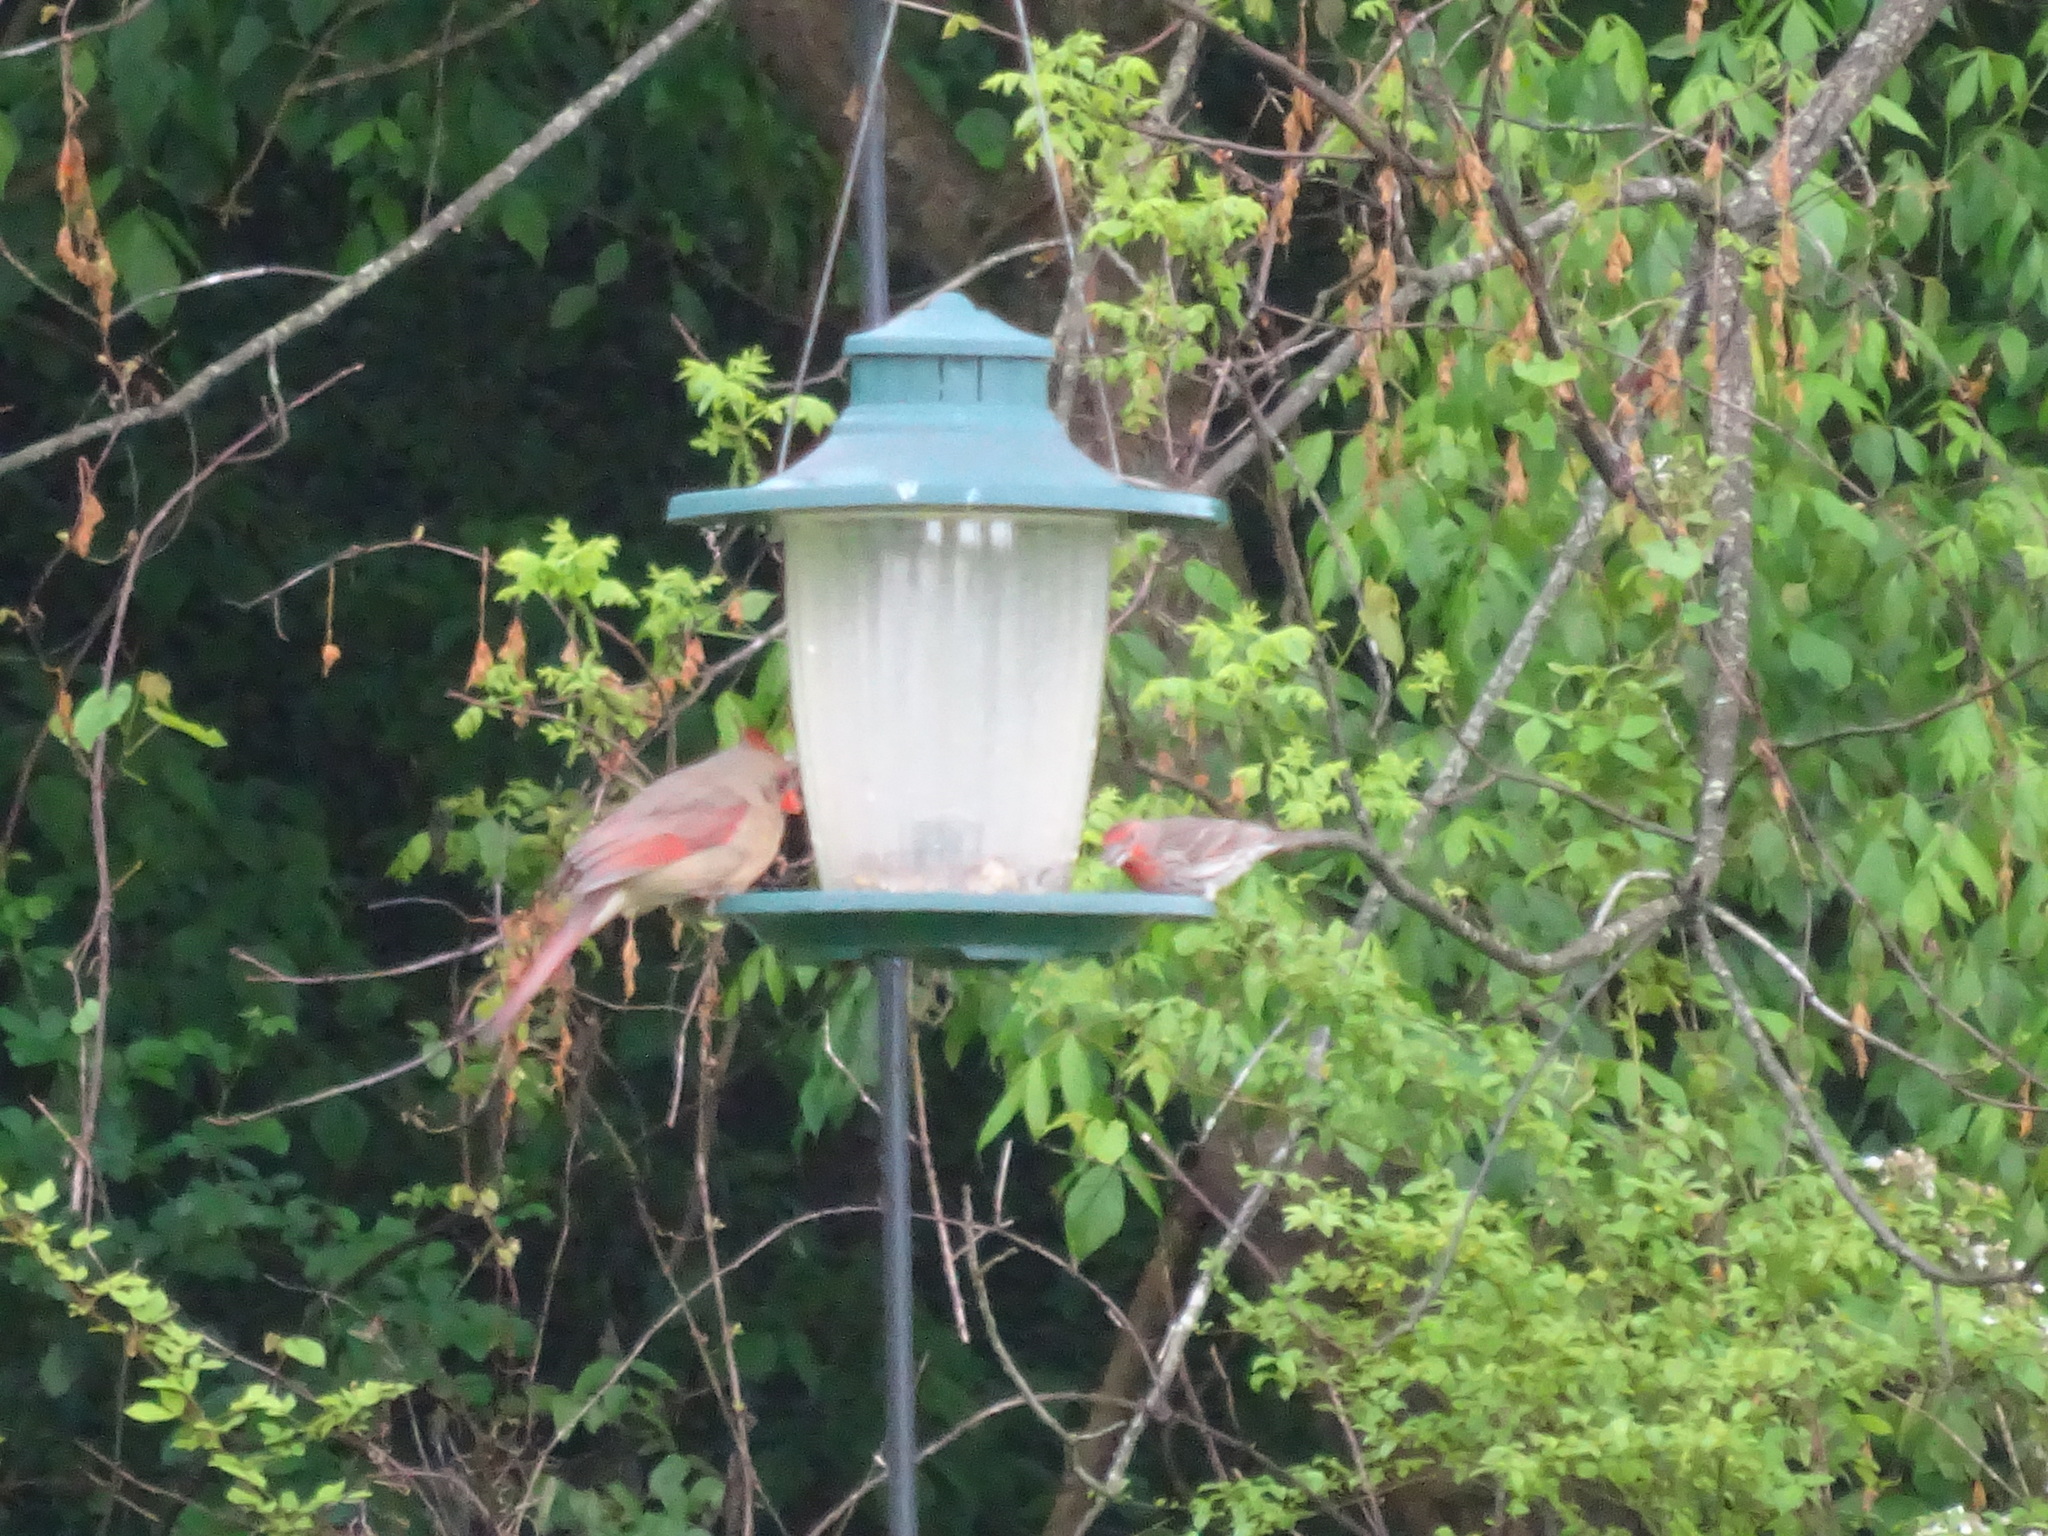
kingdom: Animalia
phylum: Chordata
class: Aves
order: Passeriformes
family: Cardinalidae
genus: Cardinalis
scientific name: Cardinalis cardinalis
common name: Northern cardinal
